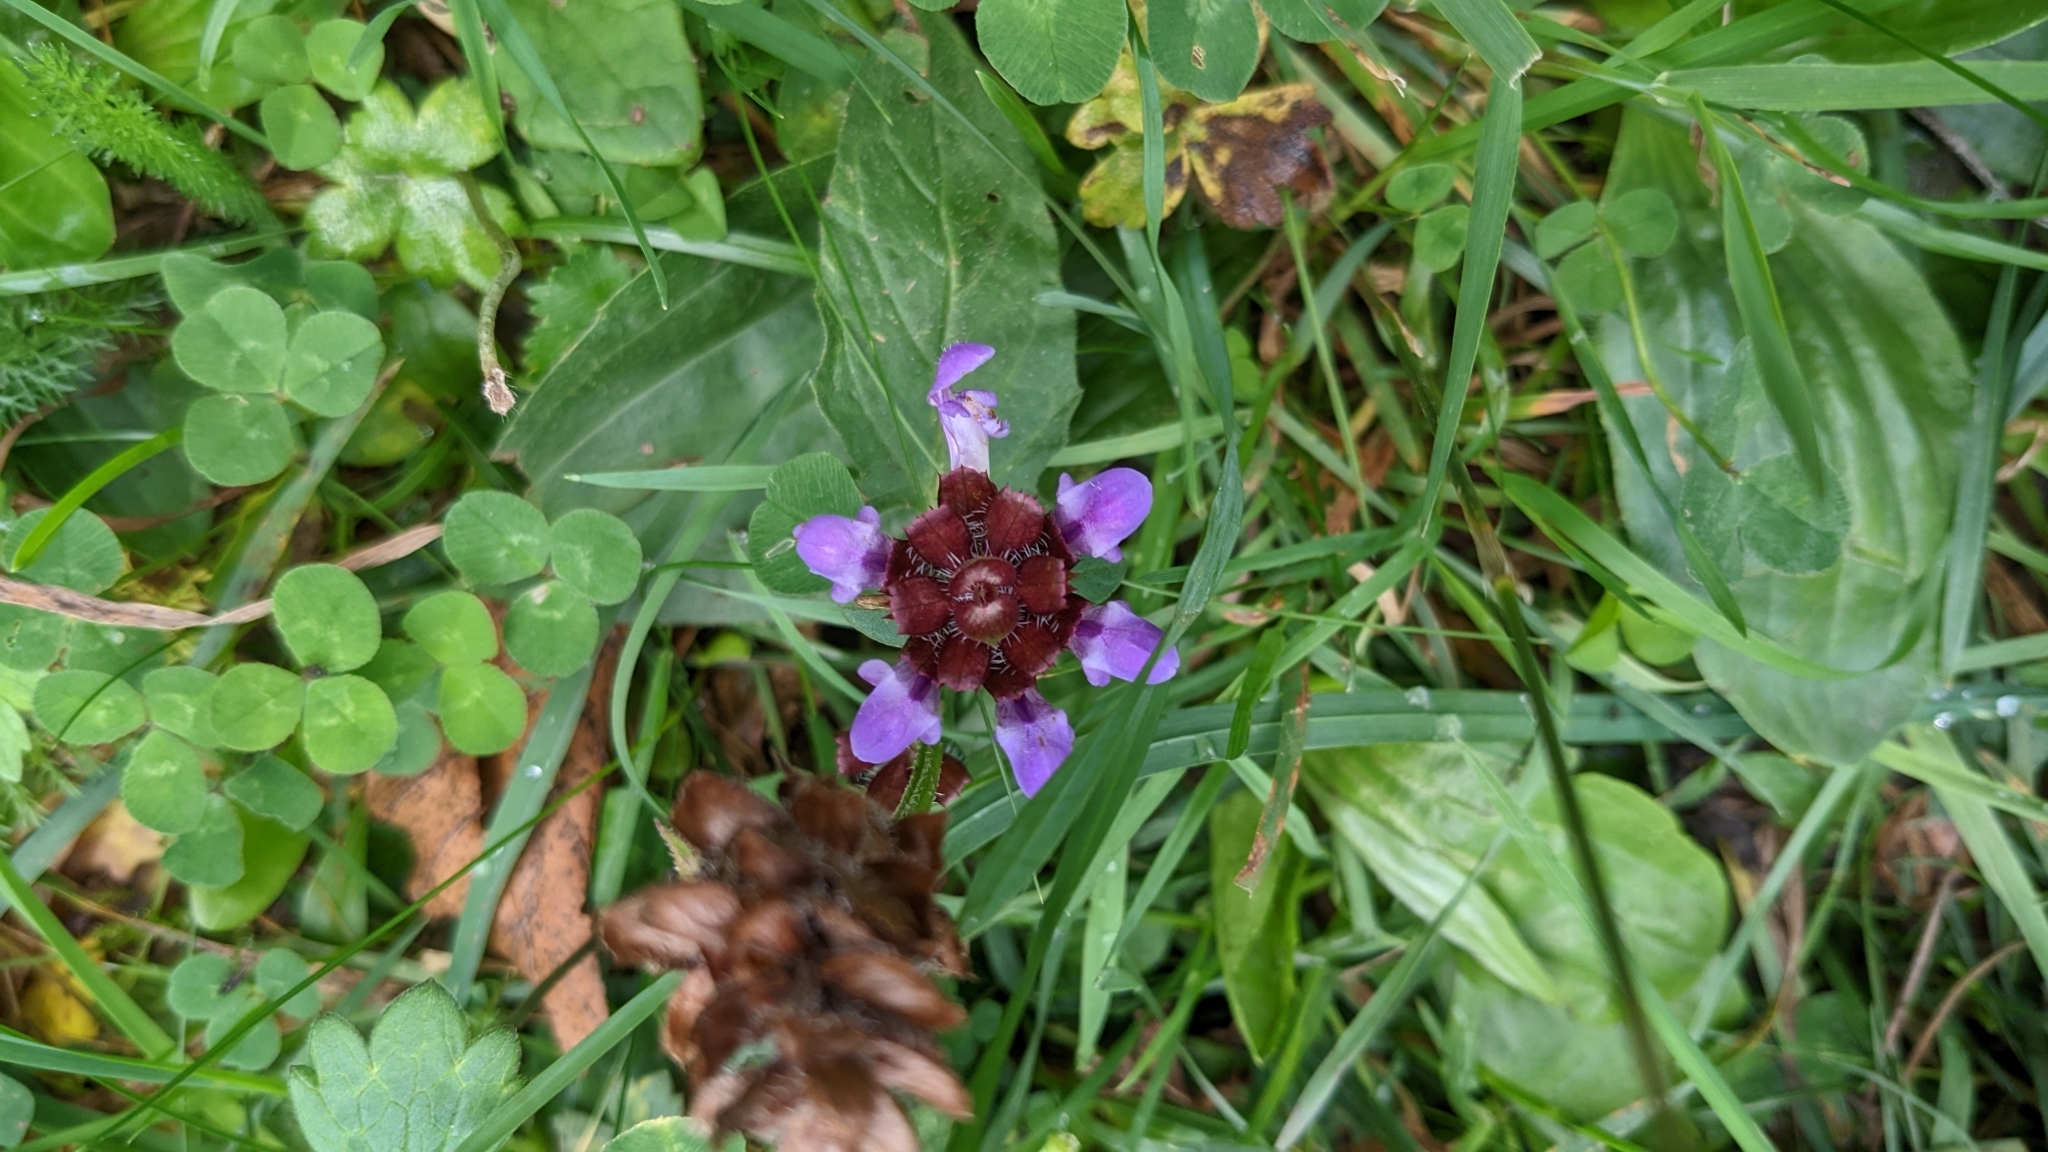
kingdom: Plantae
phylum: Tracheophyta
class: Magnoliopsida
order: Lamiales
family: Lamiaceae
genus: Prunella
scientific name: Prunella vulgaris
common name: Heal-all
